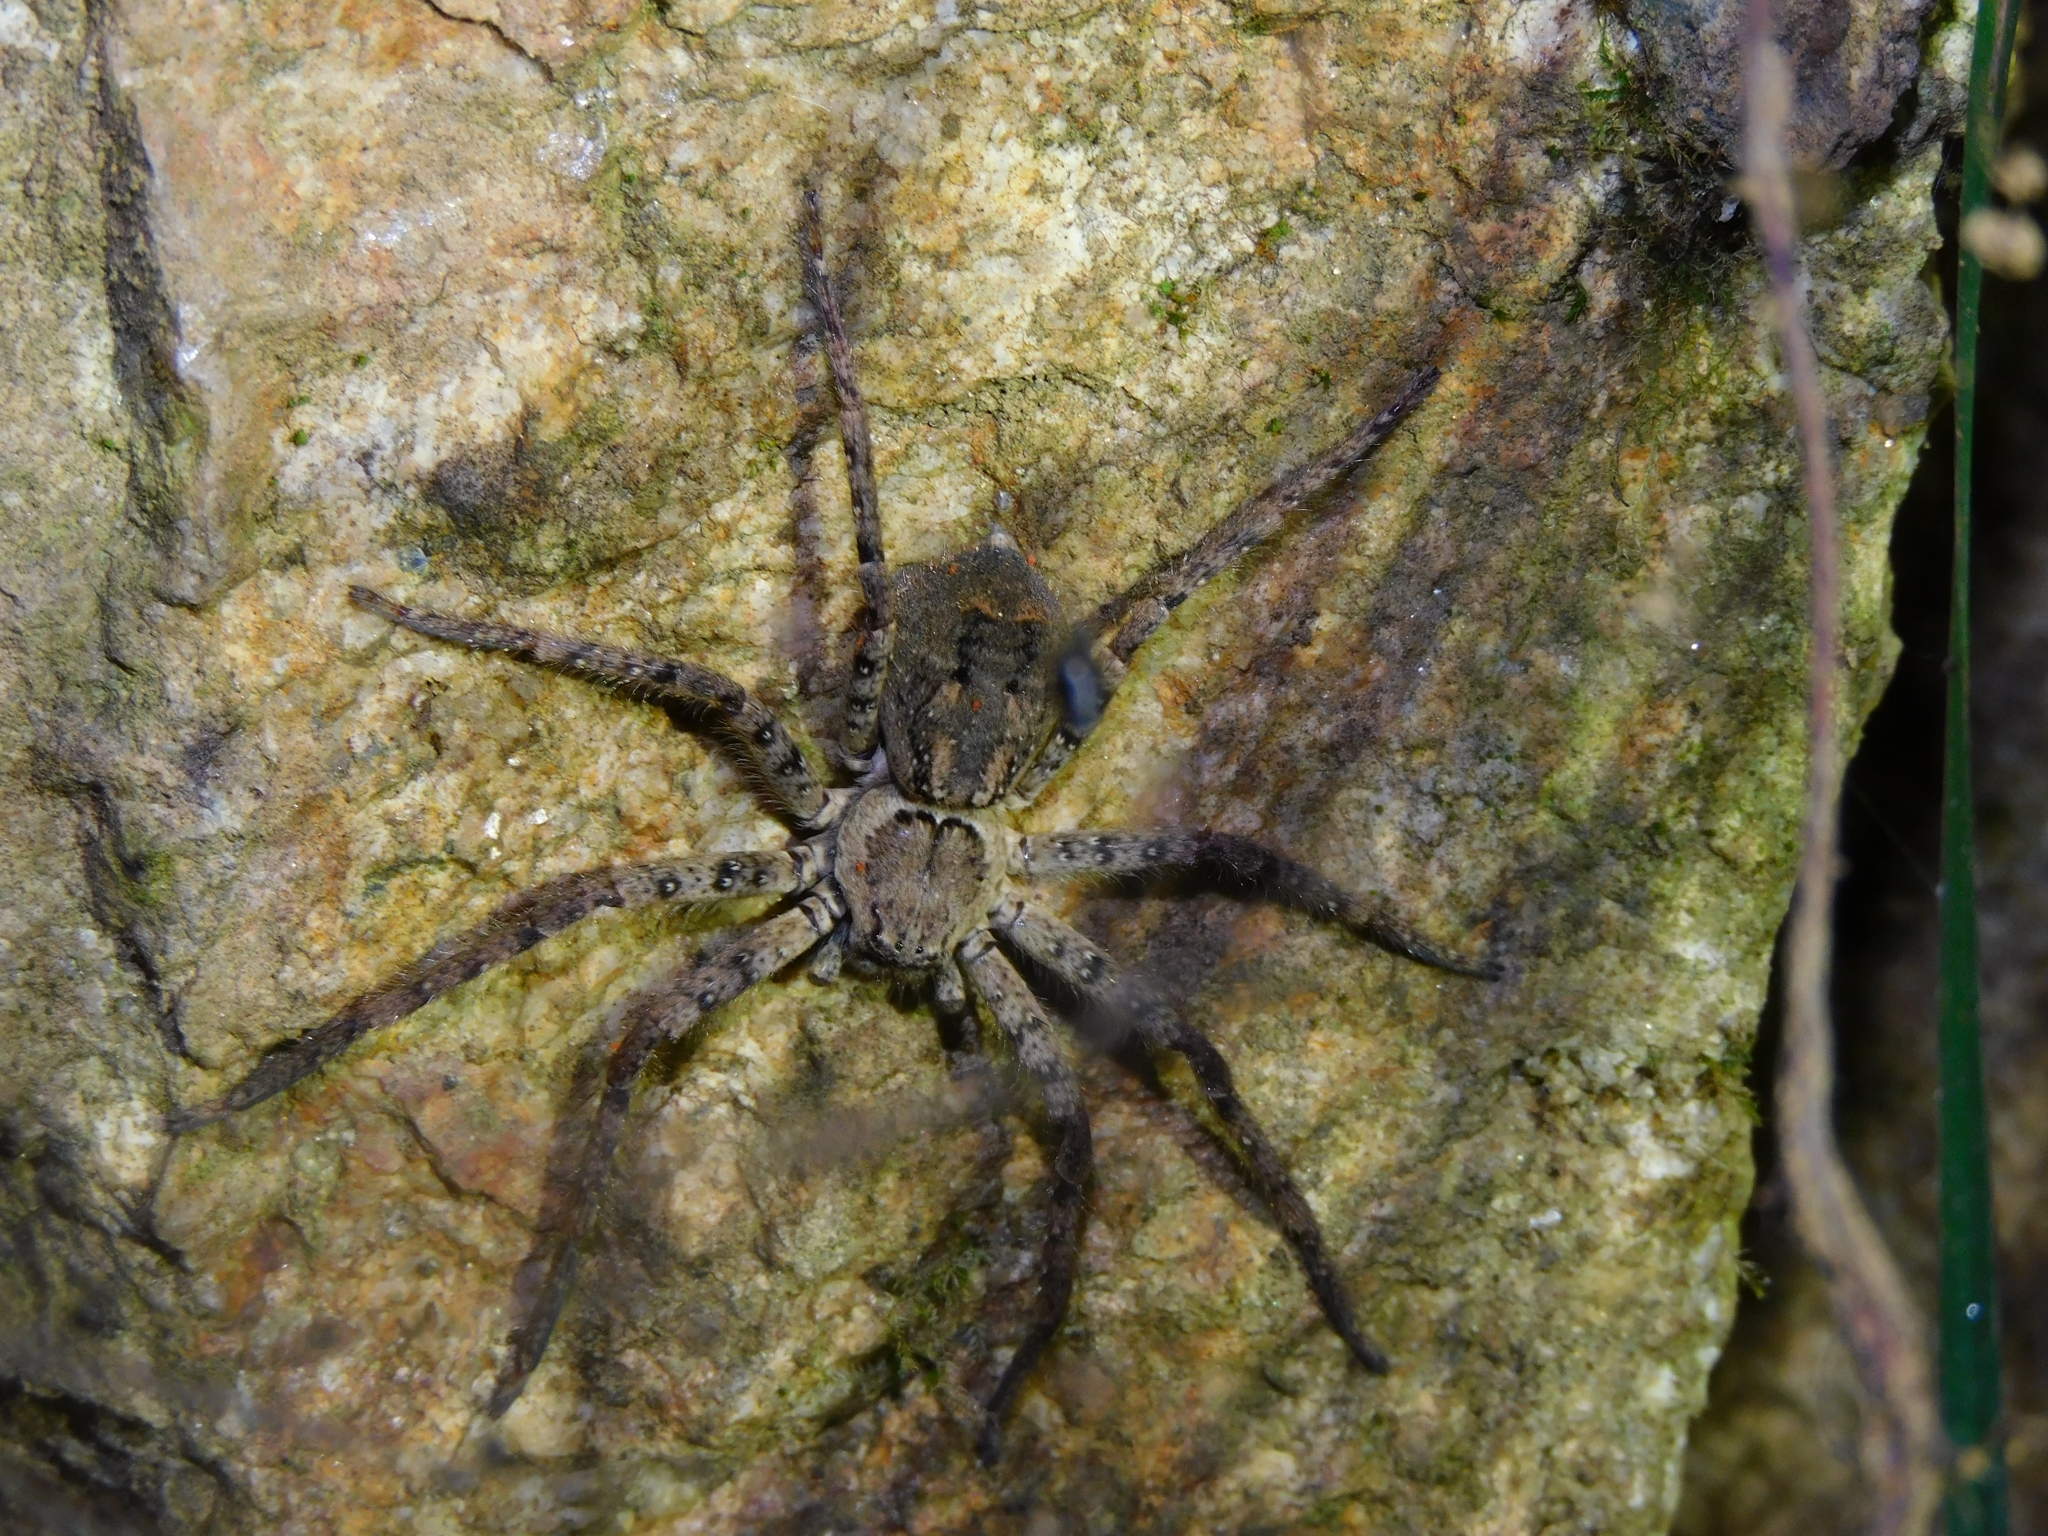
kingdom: Animalia
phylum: Arthropoda
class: Arachnida
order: Araneae
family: Sparassidae
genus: Heteropoda
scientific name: Heteropoda venatoria
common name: Huntsman spider
